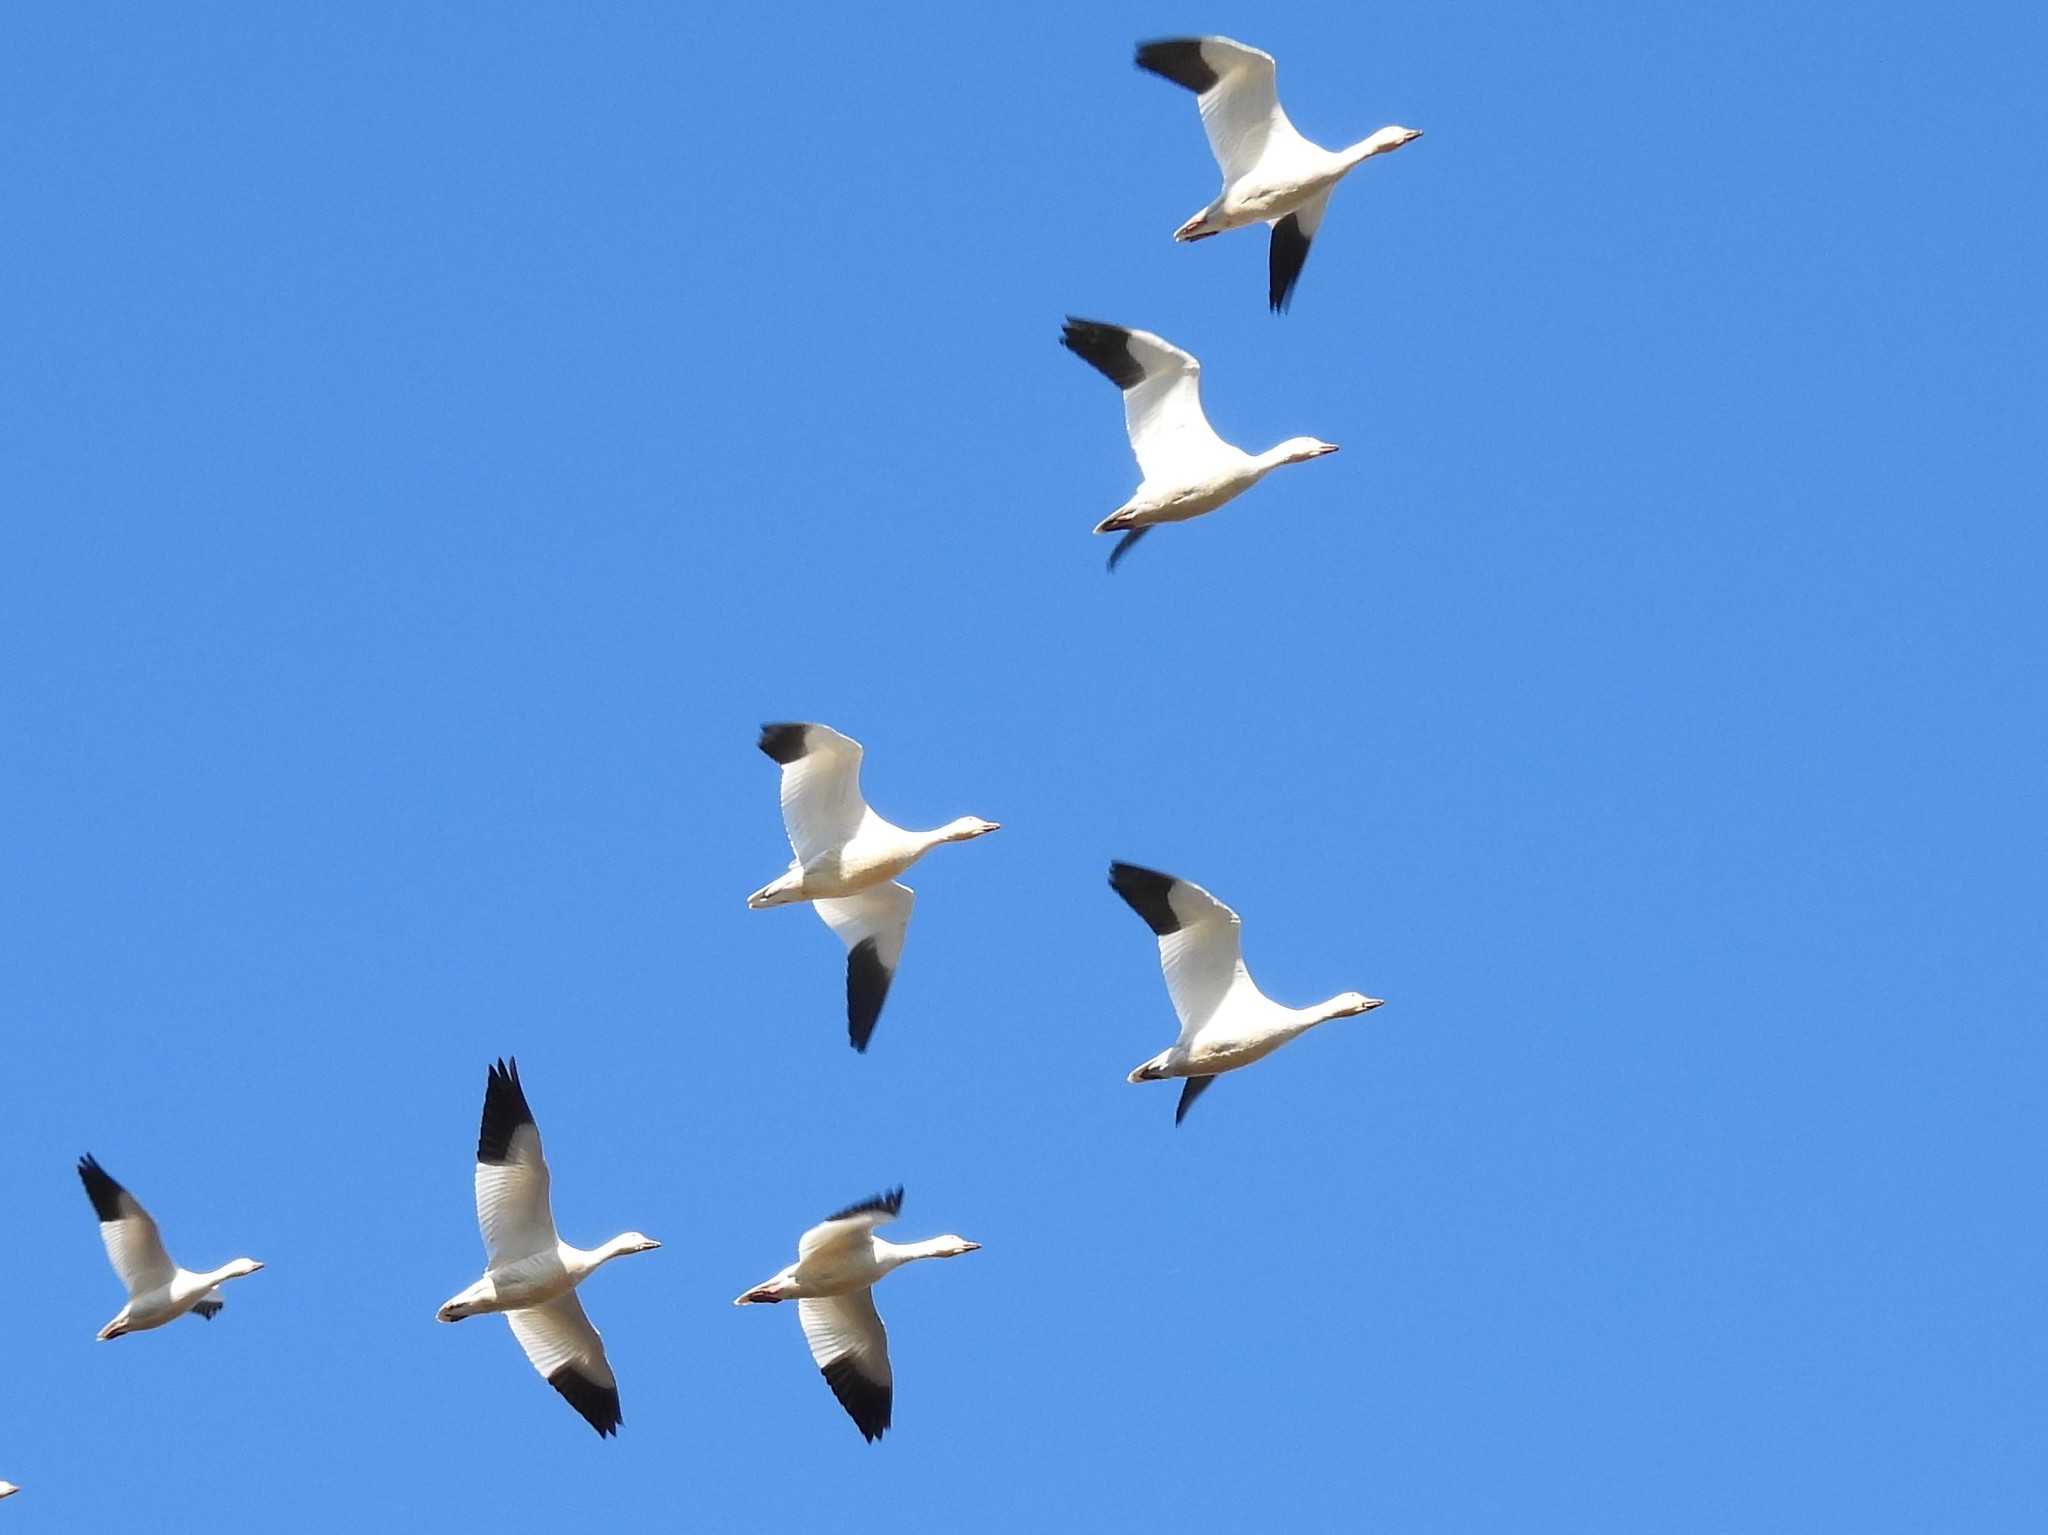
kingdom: Animalia
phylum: Chordata
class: Aves
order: Anseriformes
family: Anatidae
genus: Anser
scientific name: Anser caerulescens
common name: Snow goose
